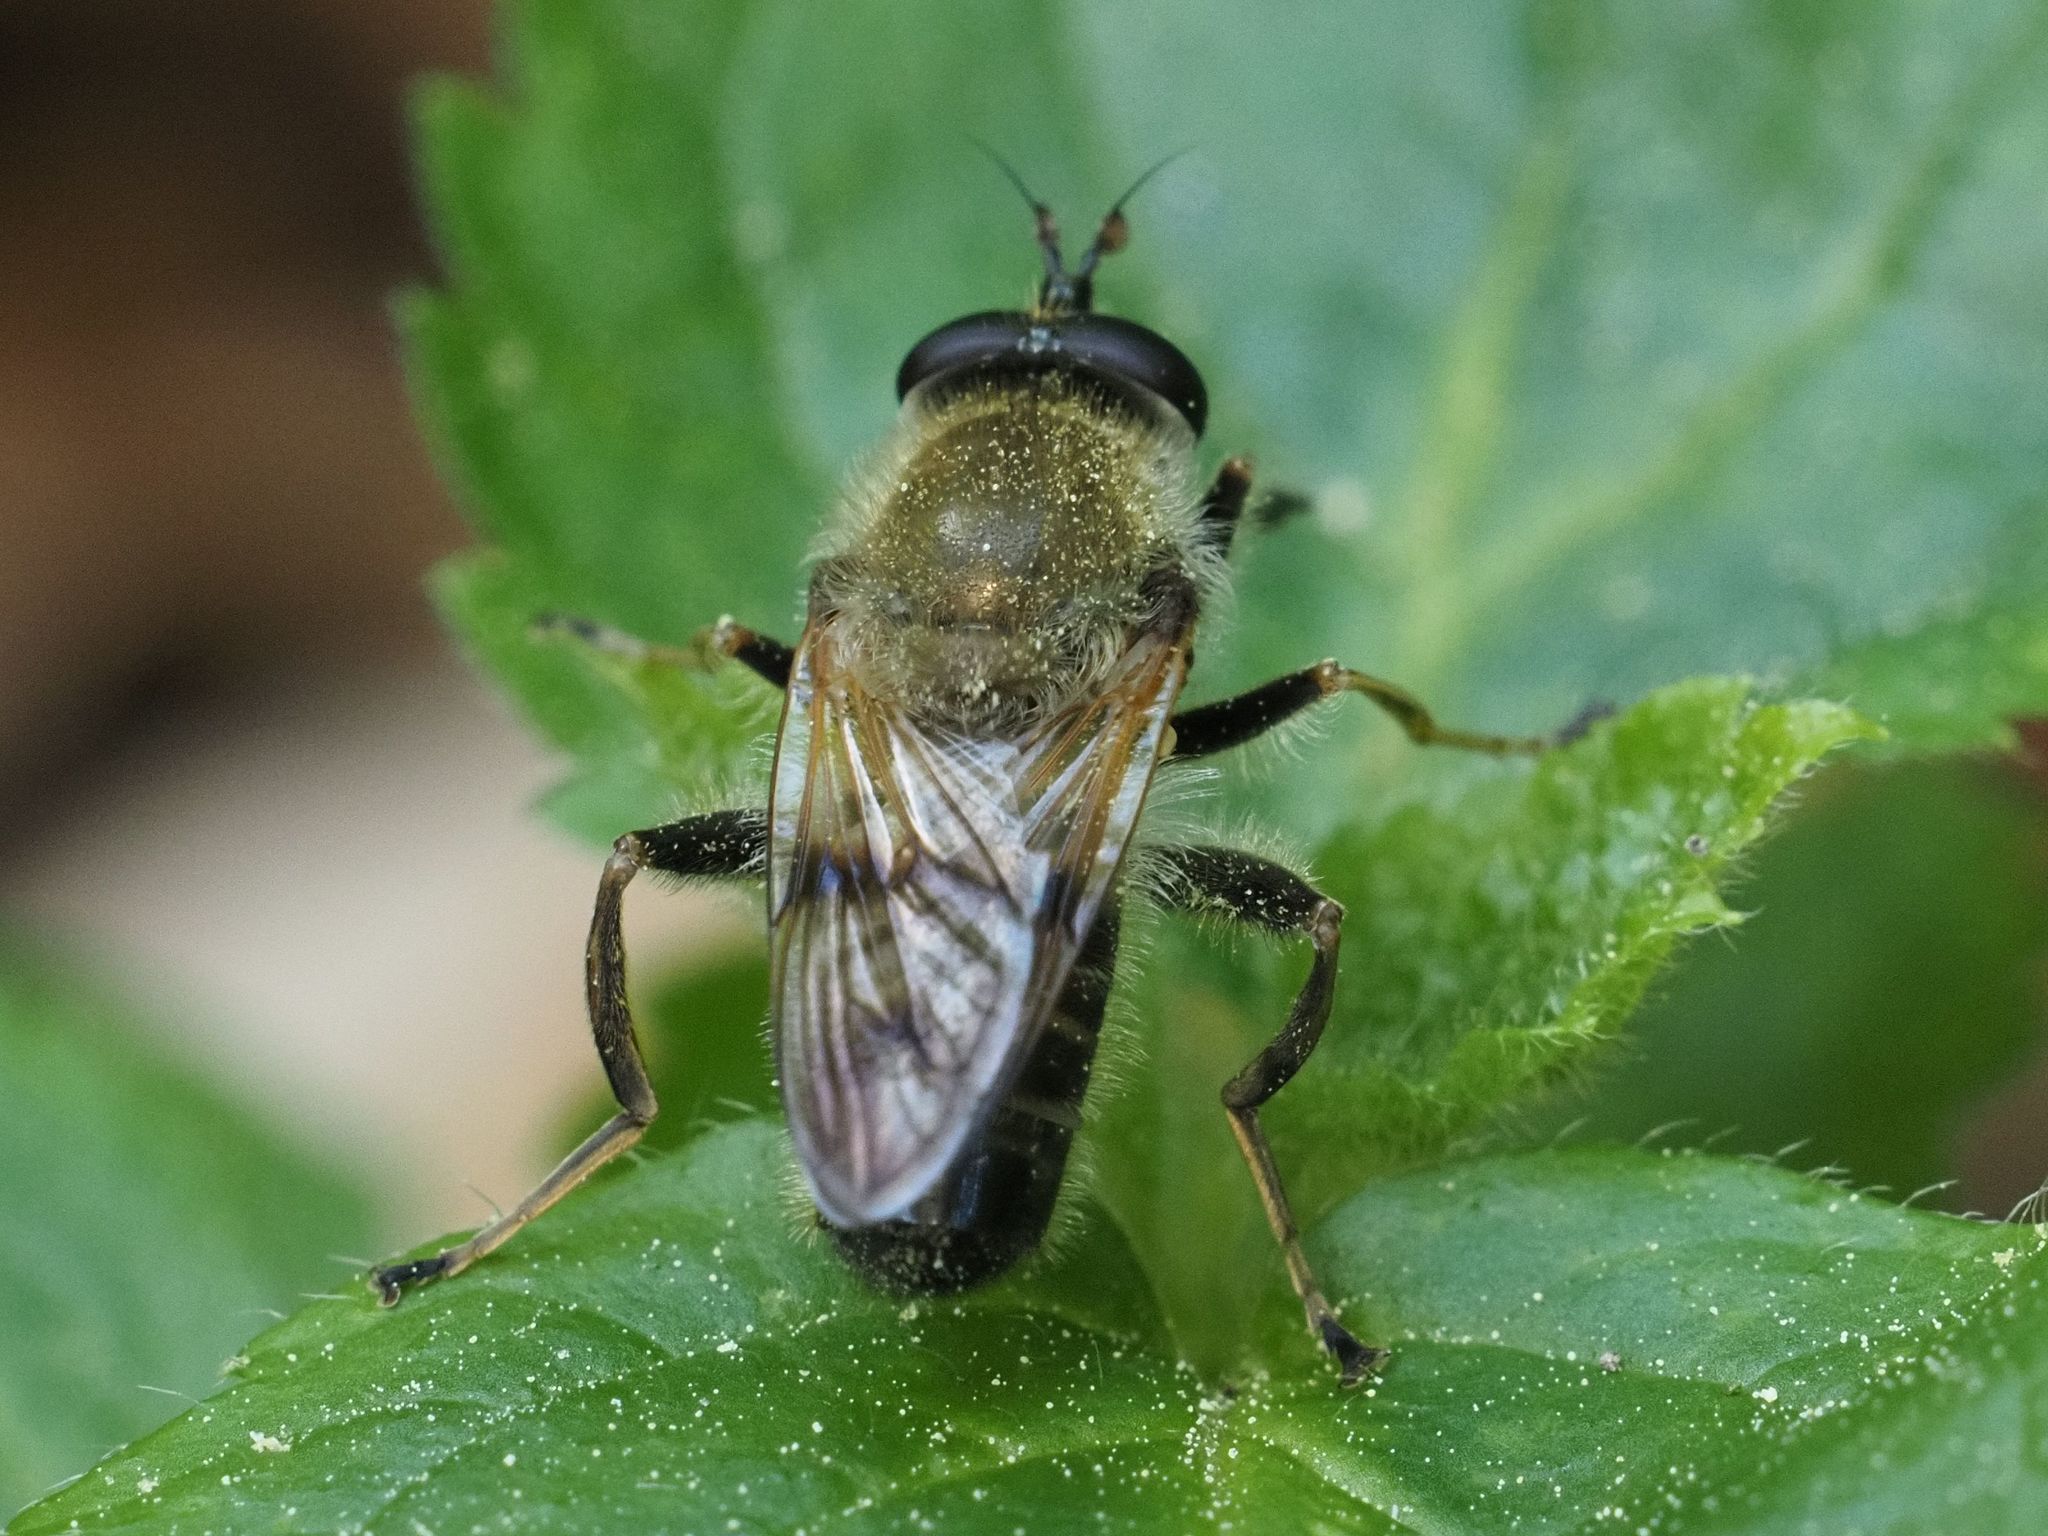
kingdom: Animalia
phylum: Arthropoda
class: Insecta
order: Diptera
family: Syrphidae
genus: Criorhina
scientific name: Criorhina asilica
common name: Pale-banded bear hoverfly
